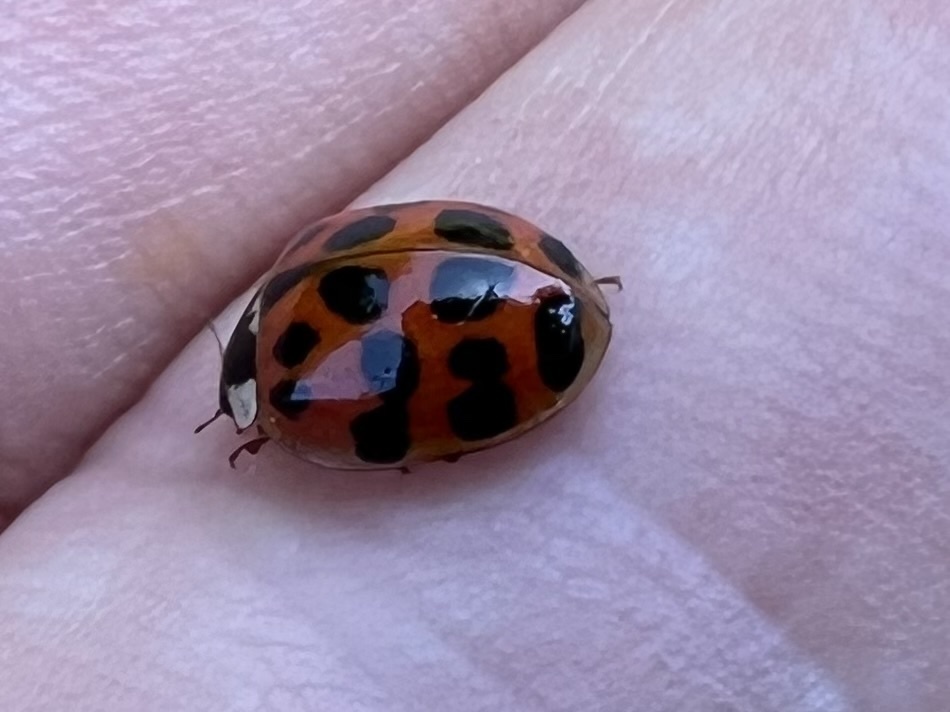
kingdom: Animalia
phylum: Arthropoda
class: Insecta
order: Coleoptera
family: Coccinellidae
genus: Harmonia
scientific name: Harmonia axyridis
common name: Harlequin ladybird
